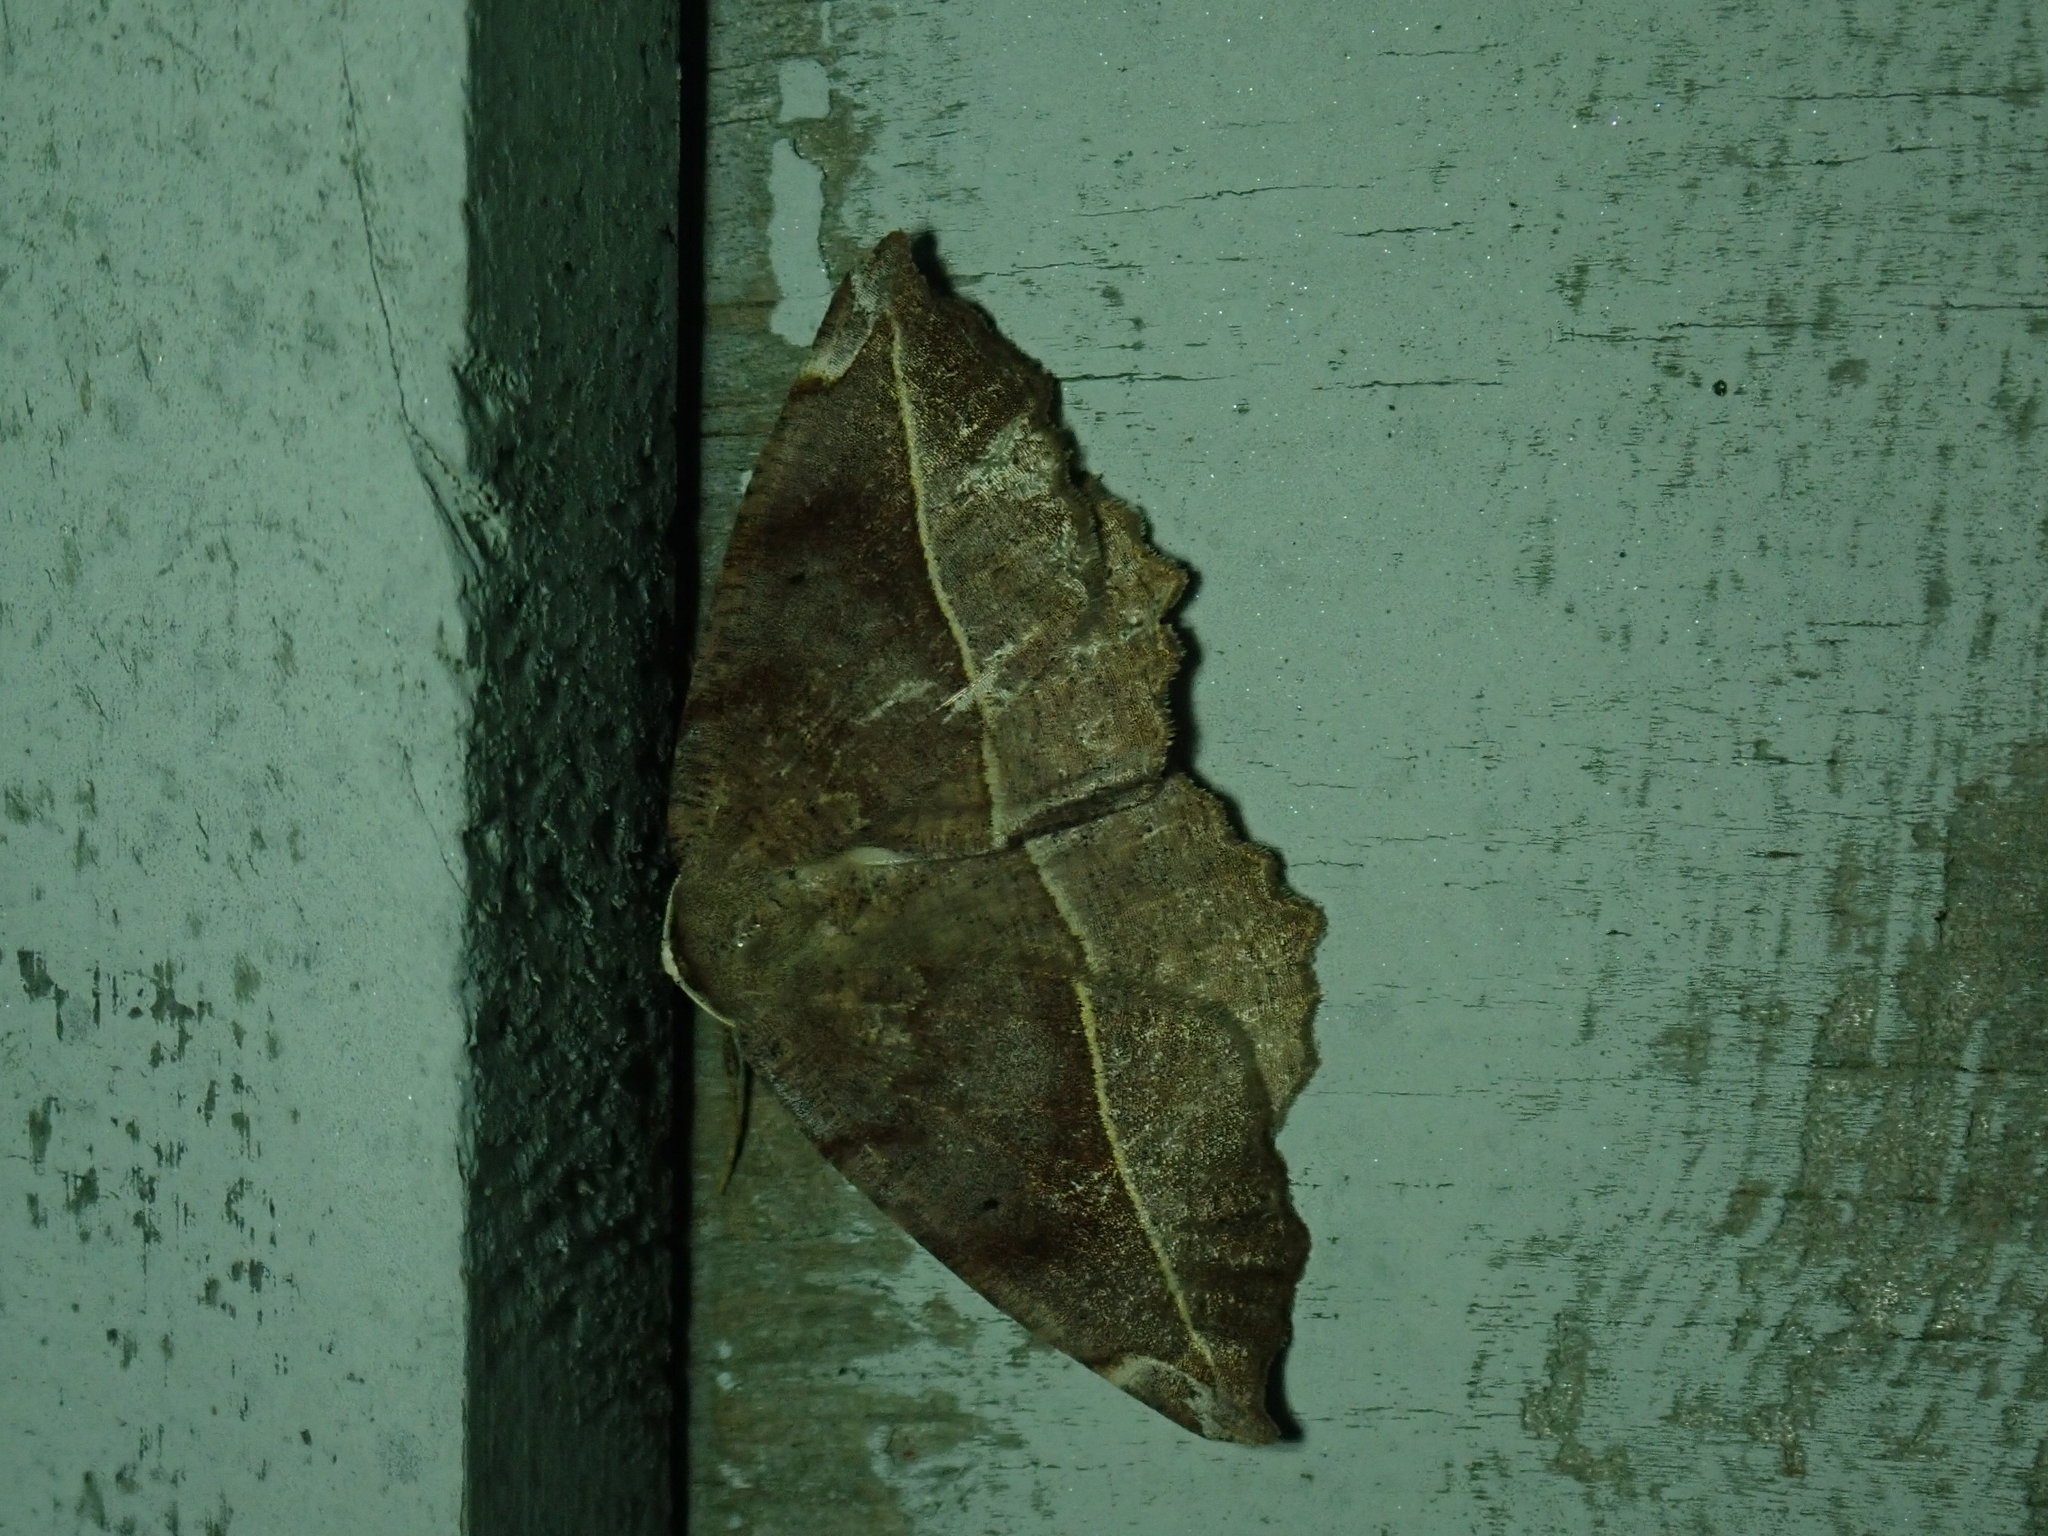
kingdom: Animalia
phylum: Arthropoda
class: Insecta
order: Lepidoptera
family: Geometridae
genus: Eutrapela
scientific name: Eutrapela clemataria
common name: Curved-toothed geometer
